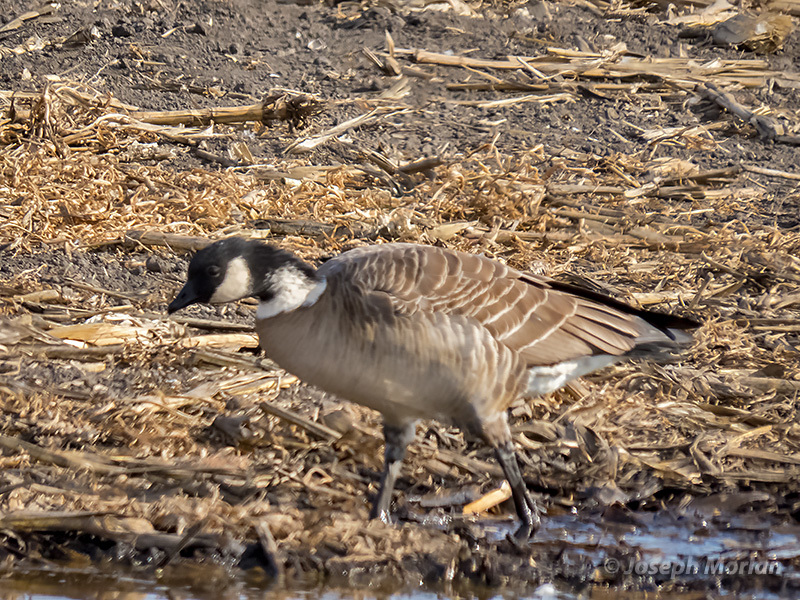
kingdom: Animalia
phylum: Chordata
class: Aves
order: Anseriformes
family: Anatidae
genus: Branta
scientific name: Branta hutchinsii
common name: Cackling goose
